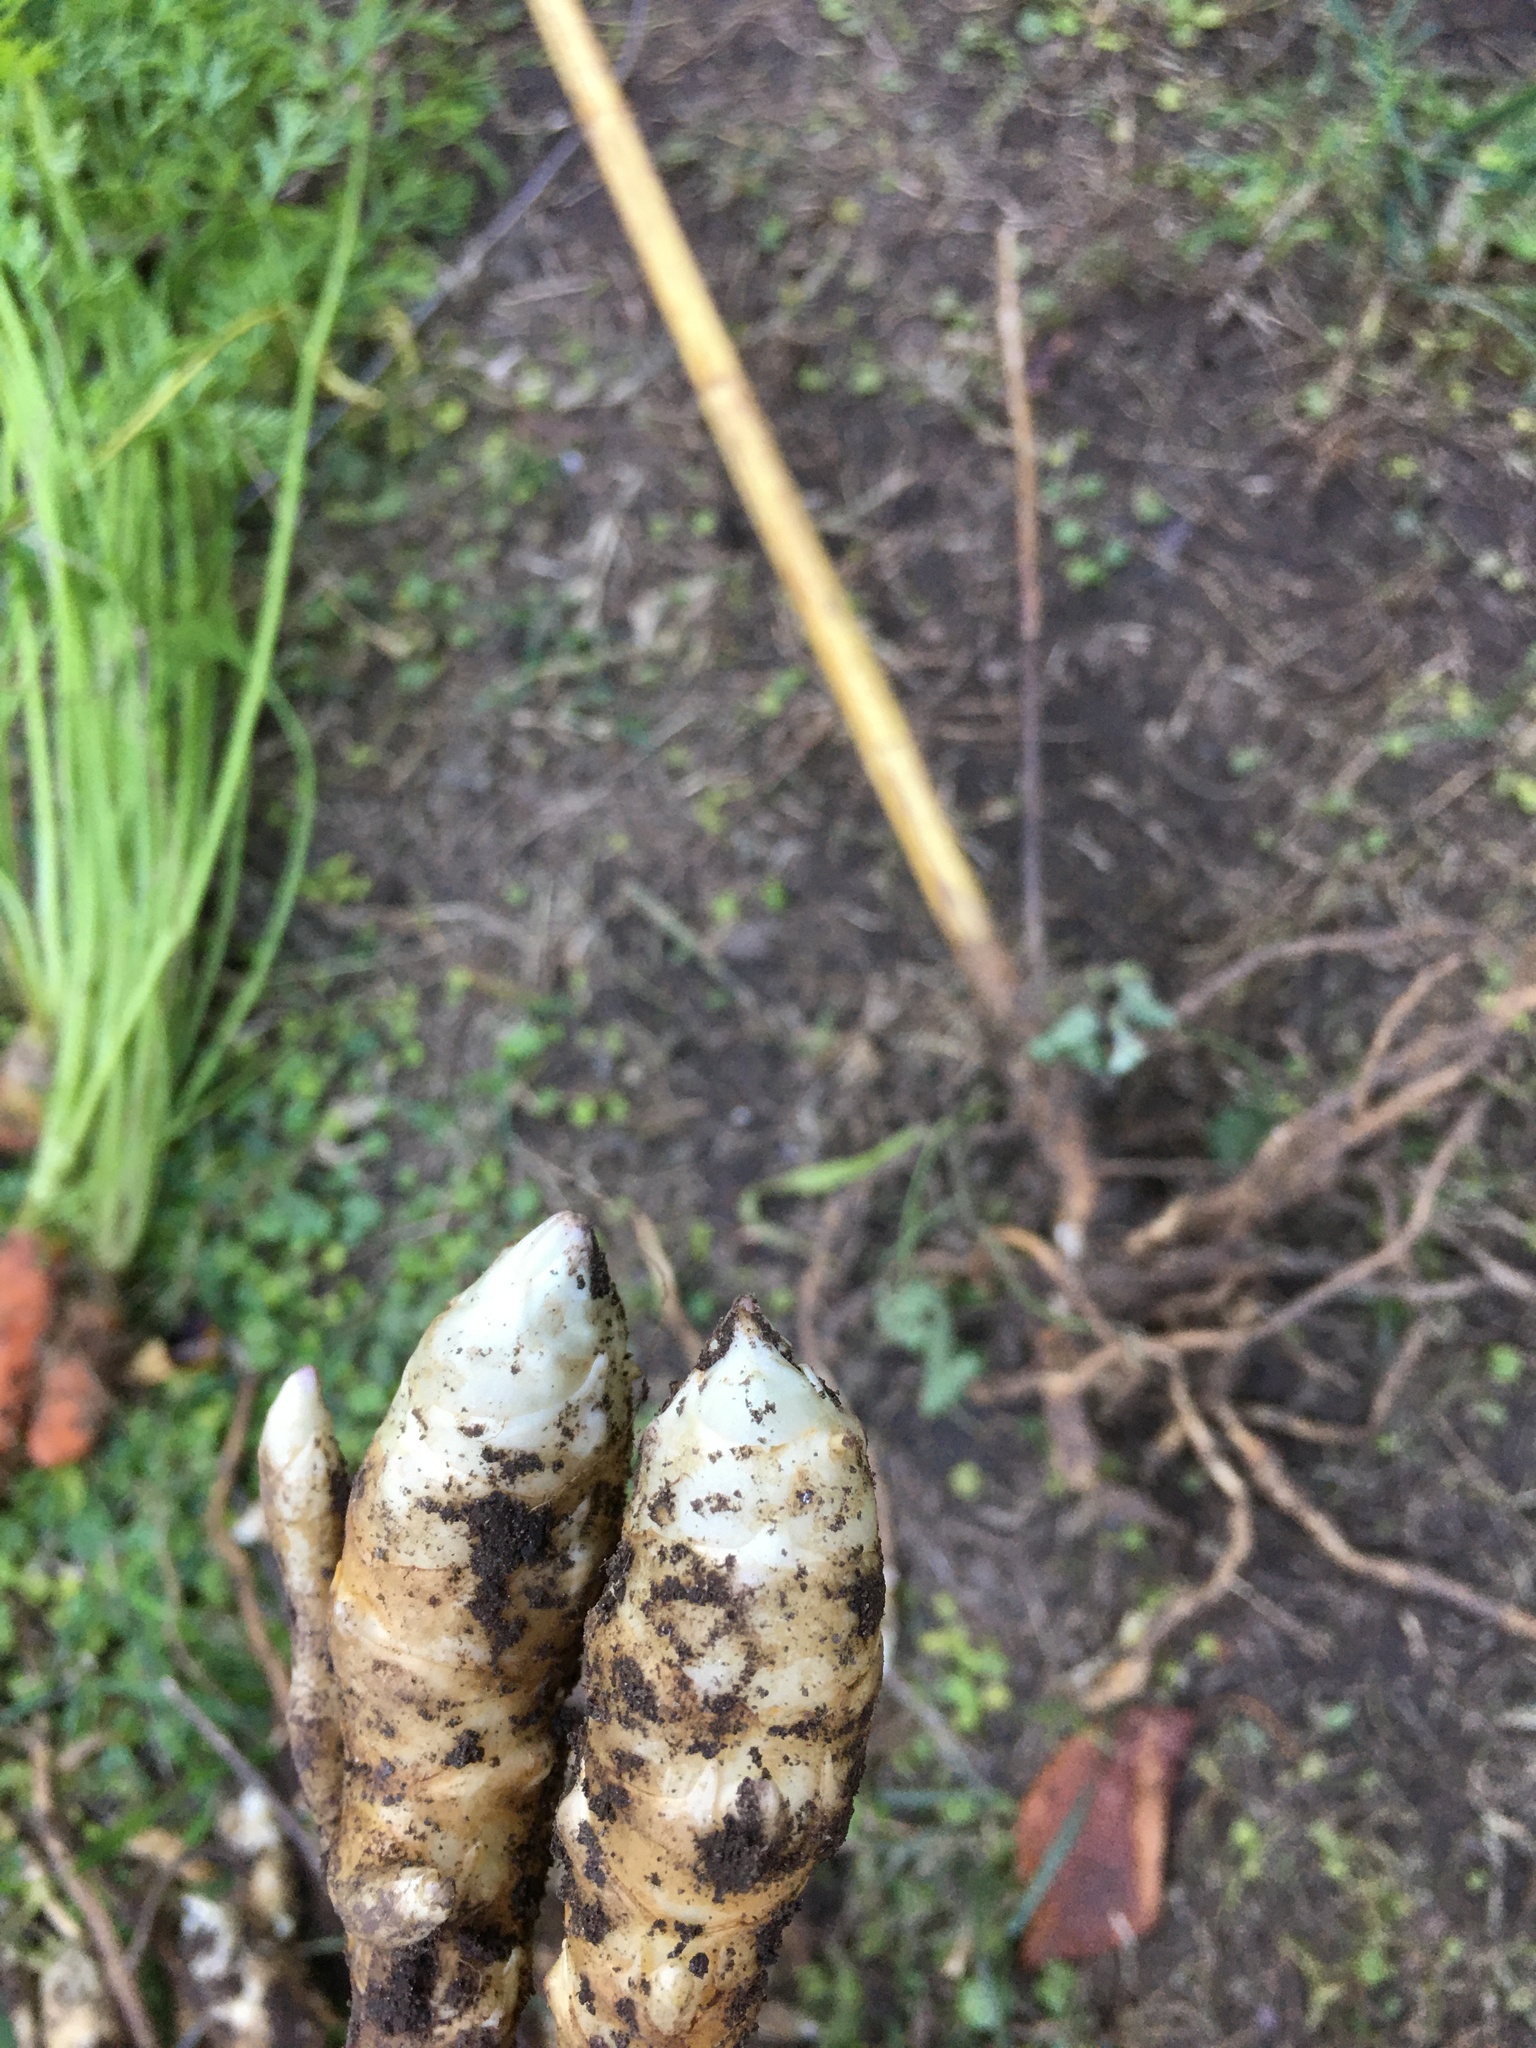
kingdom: Plantae
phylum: Tracheophyta
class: Magnoliopsida
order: Asterales
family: Asteraceae
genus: Helianthus
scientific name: Helianthus tuberosus
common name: Jerusalem artichoke
